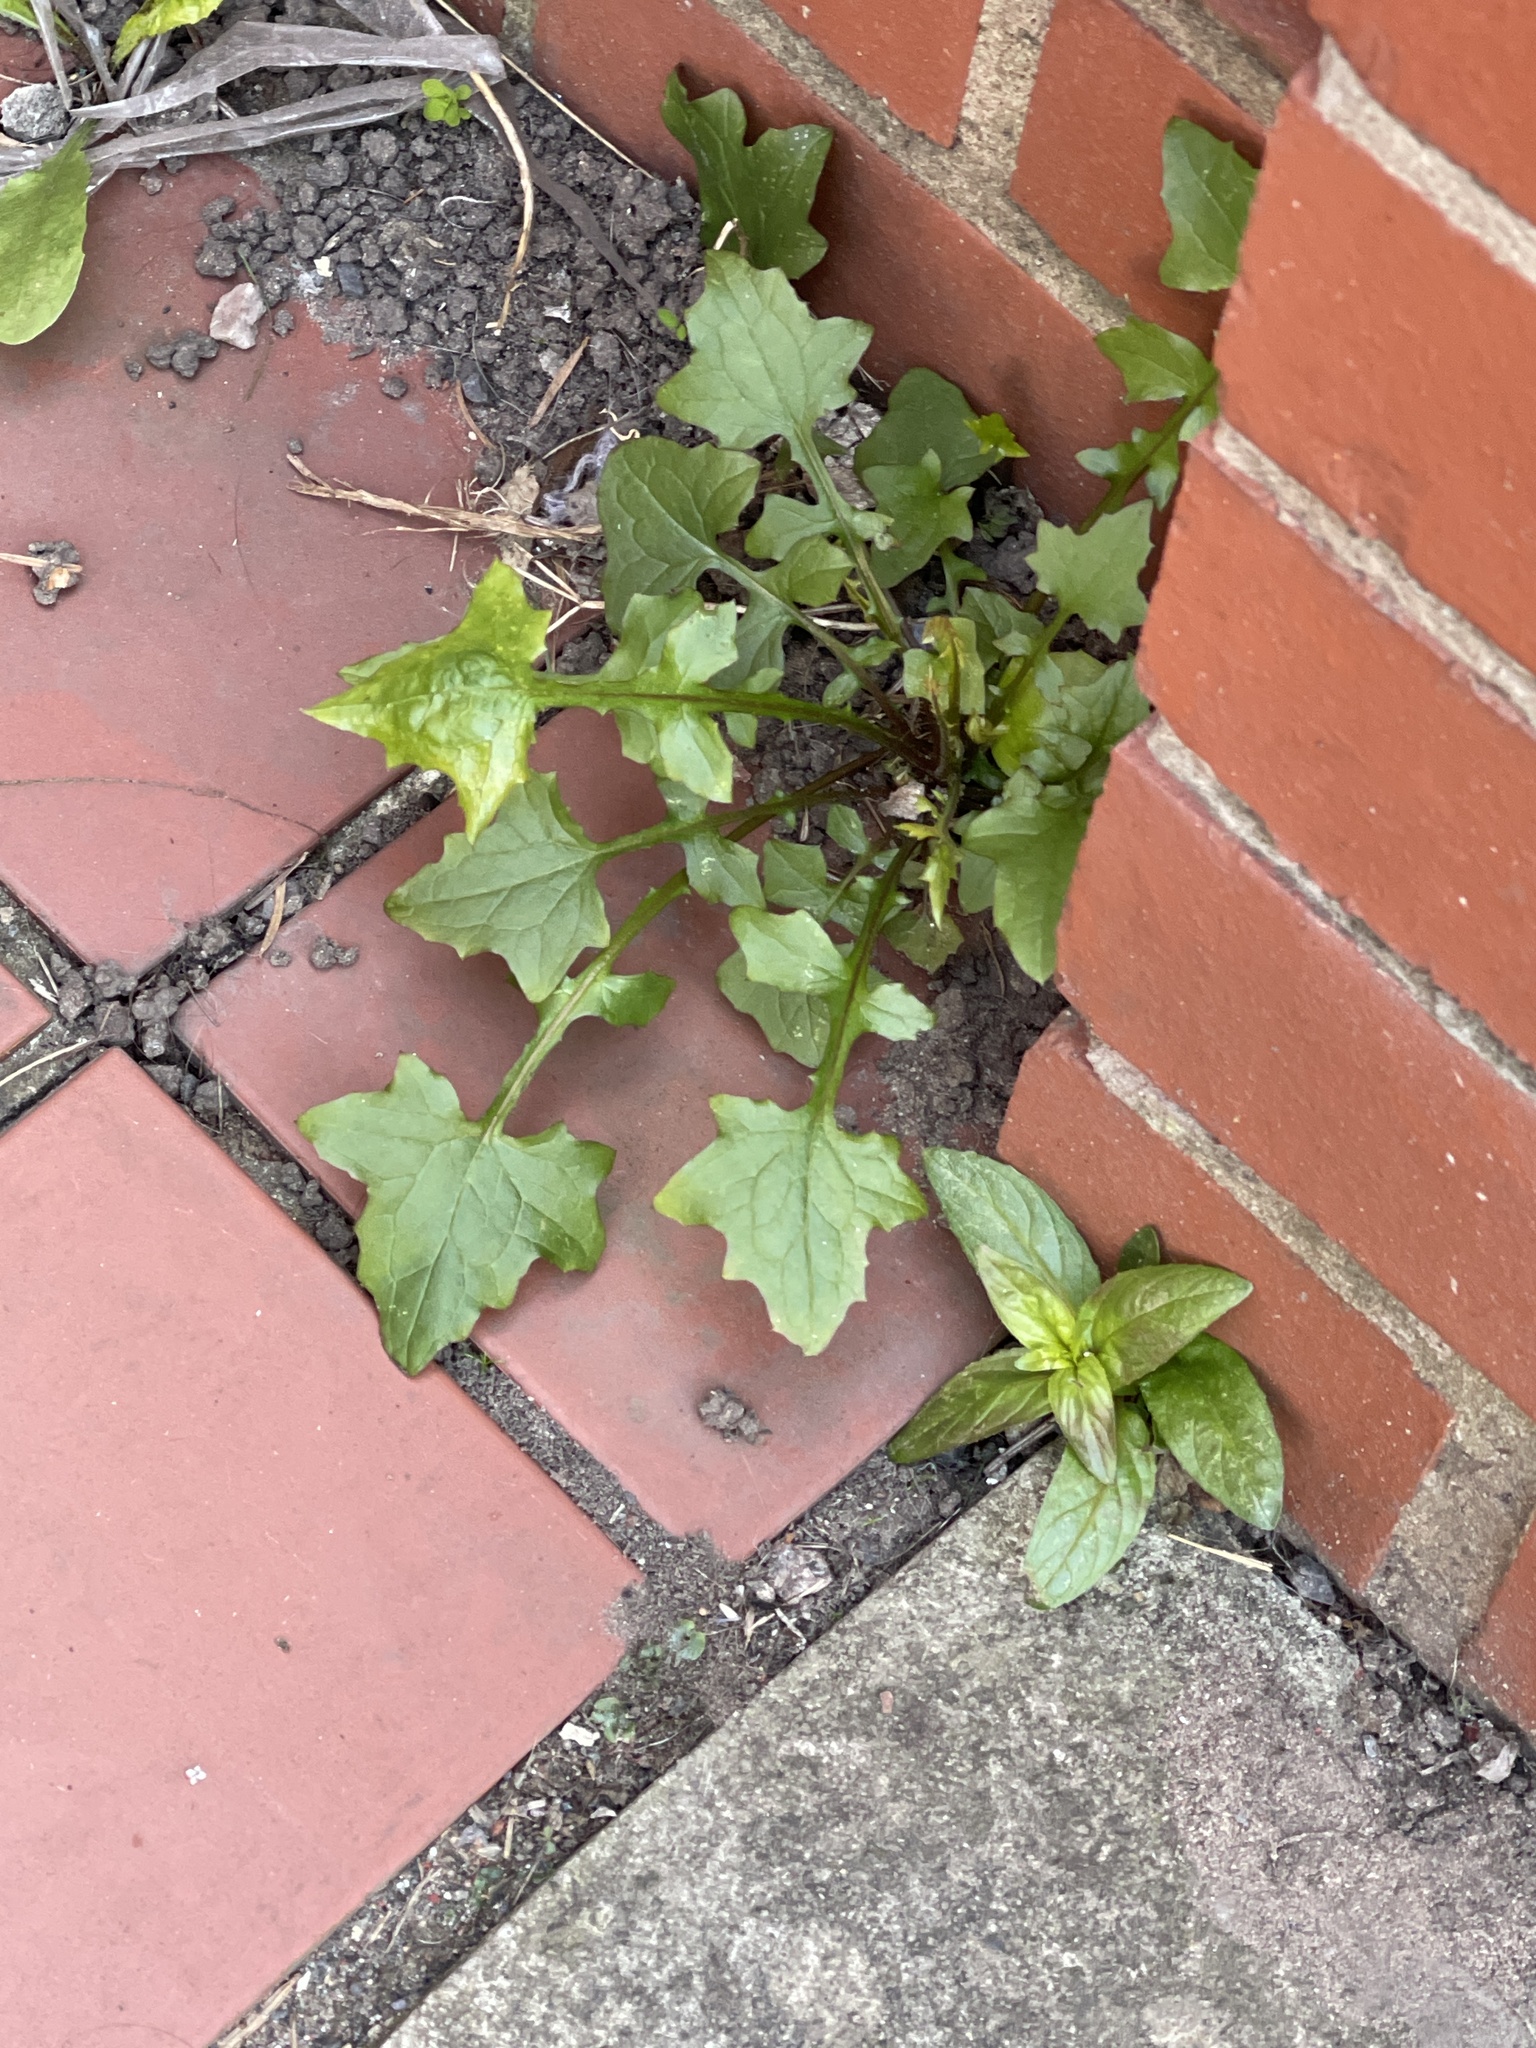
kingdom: Plantae
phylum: Tracheophyta
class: Magnoliopsida
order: Asterales
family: Asteraceae
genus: Mycelis
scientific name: Mycelis muralis
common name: Wall lettuce
